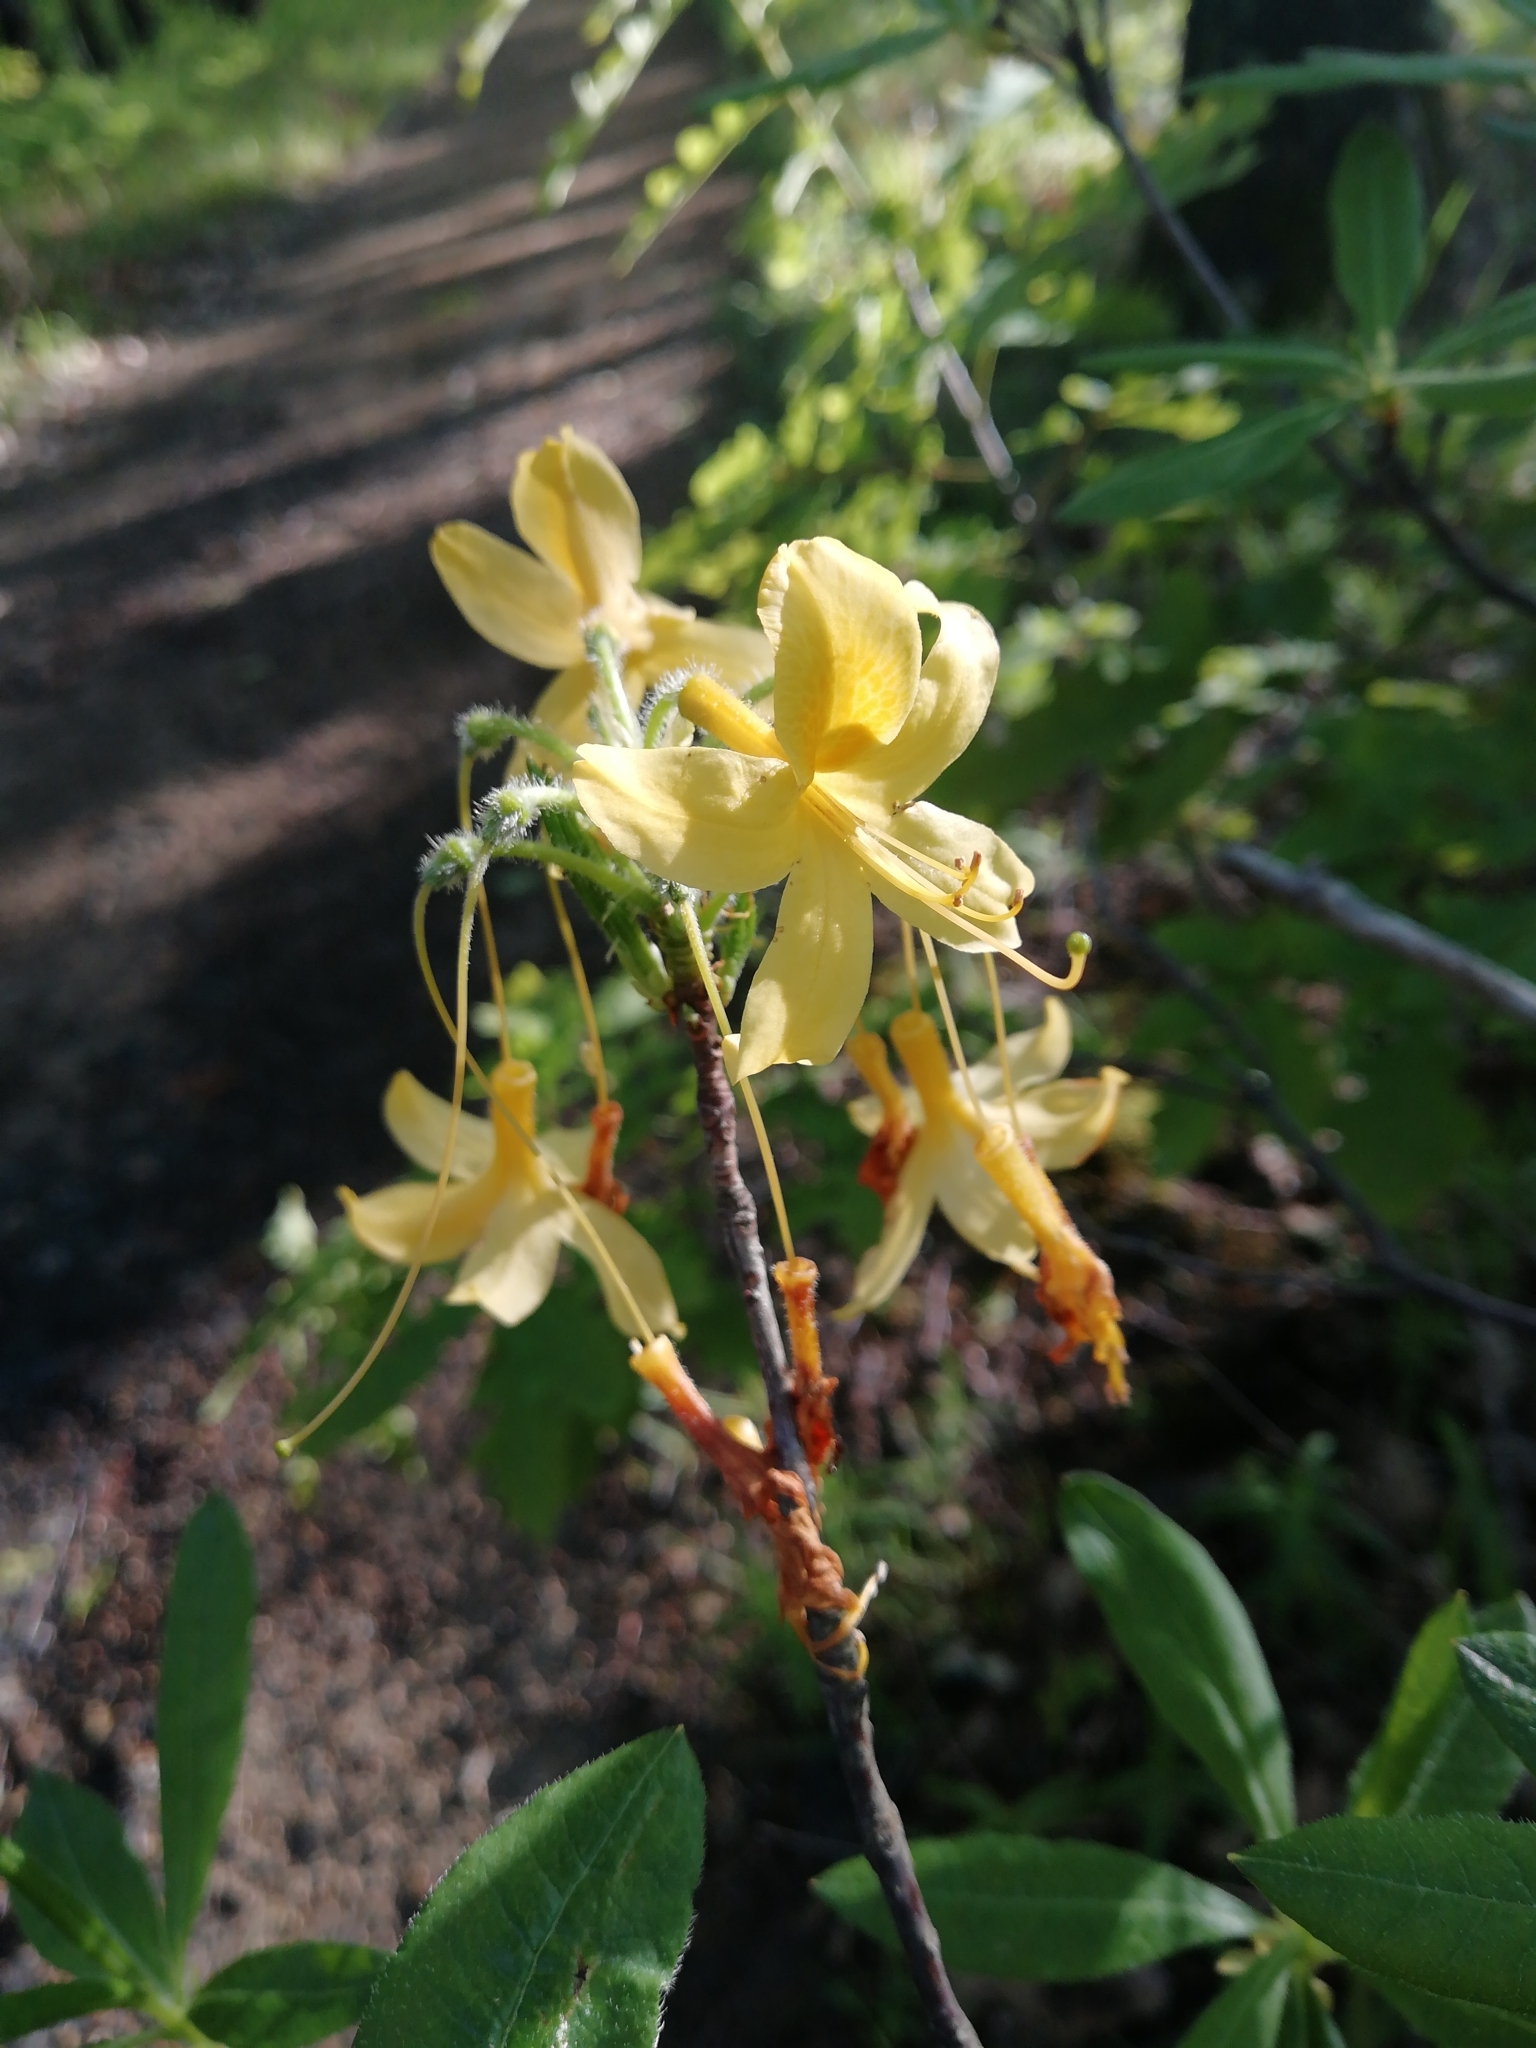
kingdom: Plantae
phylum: Tracheophyta
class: Magnoliopsida
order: Ericales
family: Ericaceae
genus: Rhododendron
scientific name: Rhododendron luteum
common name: Yellow azalea
